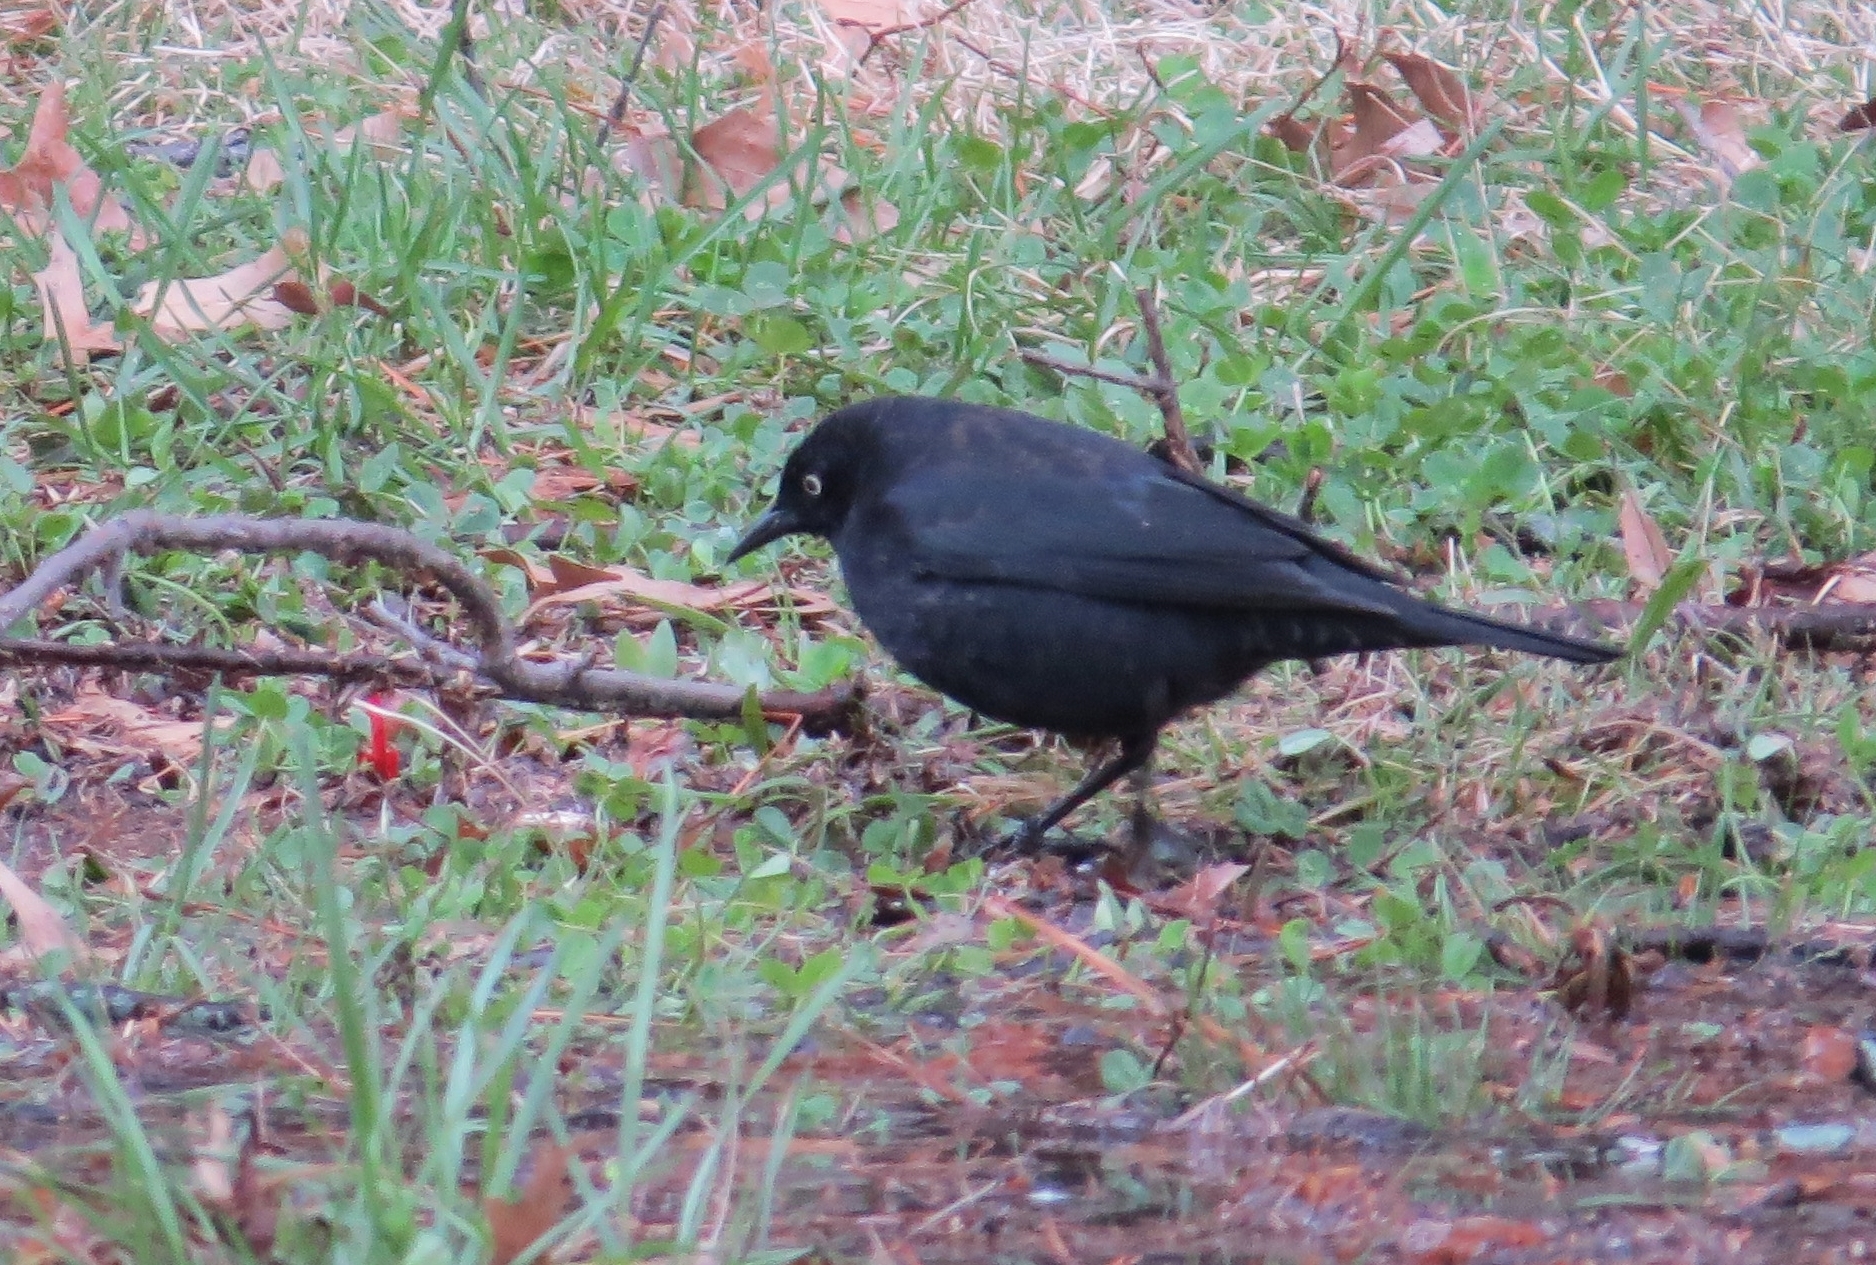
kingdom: Animalia
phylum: Chordata
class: Aves
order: Passeriformes
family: Icteridae
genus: Euphagus
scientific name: Euphagus carolinus
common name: Rusty blackbird
